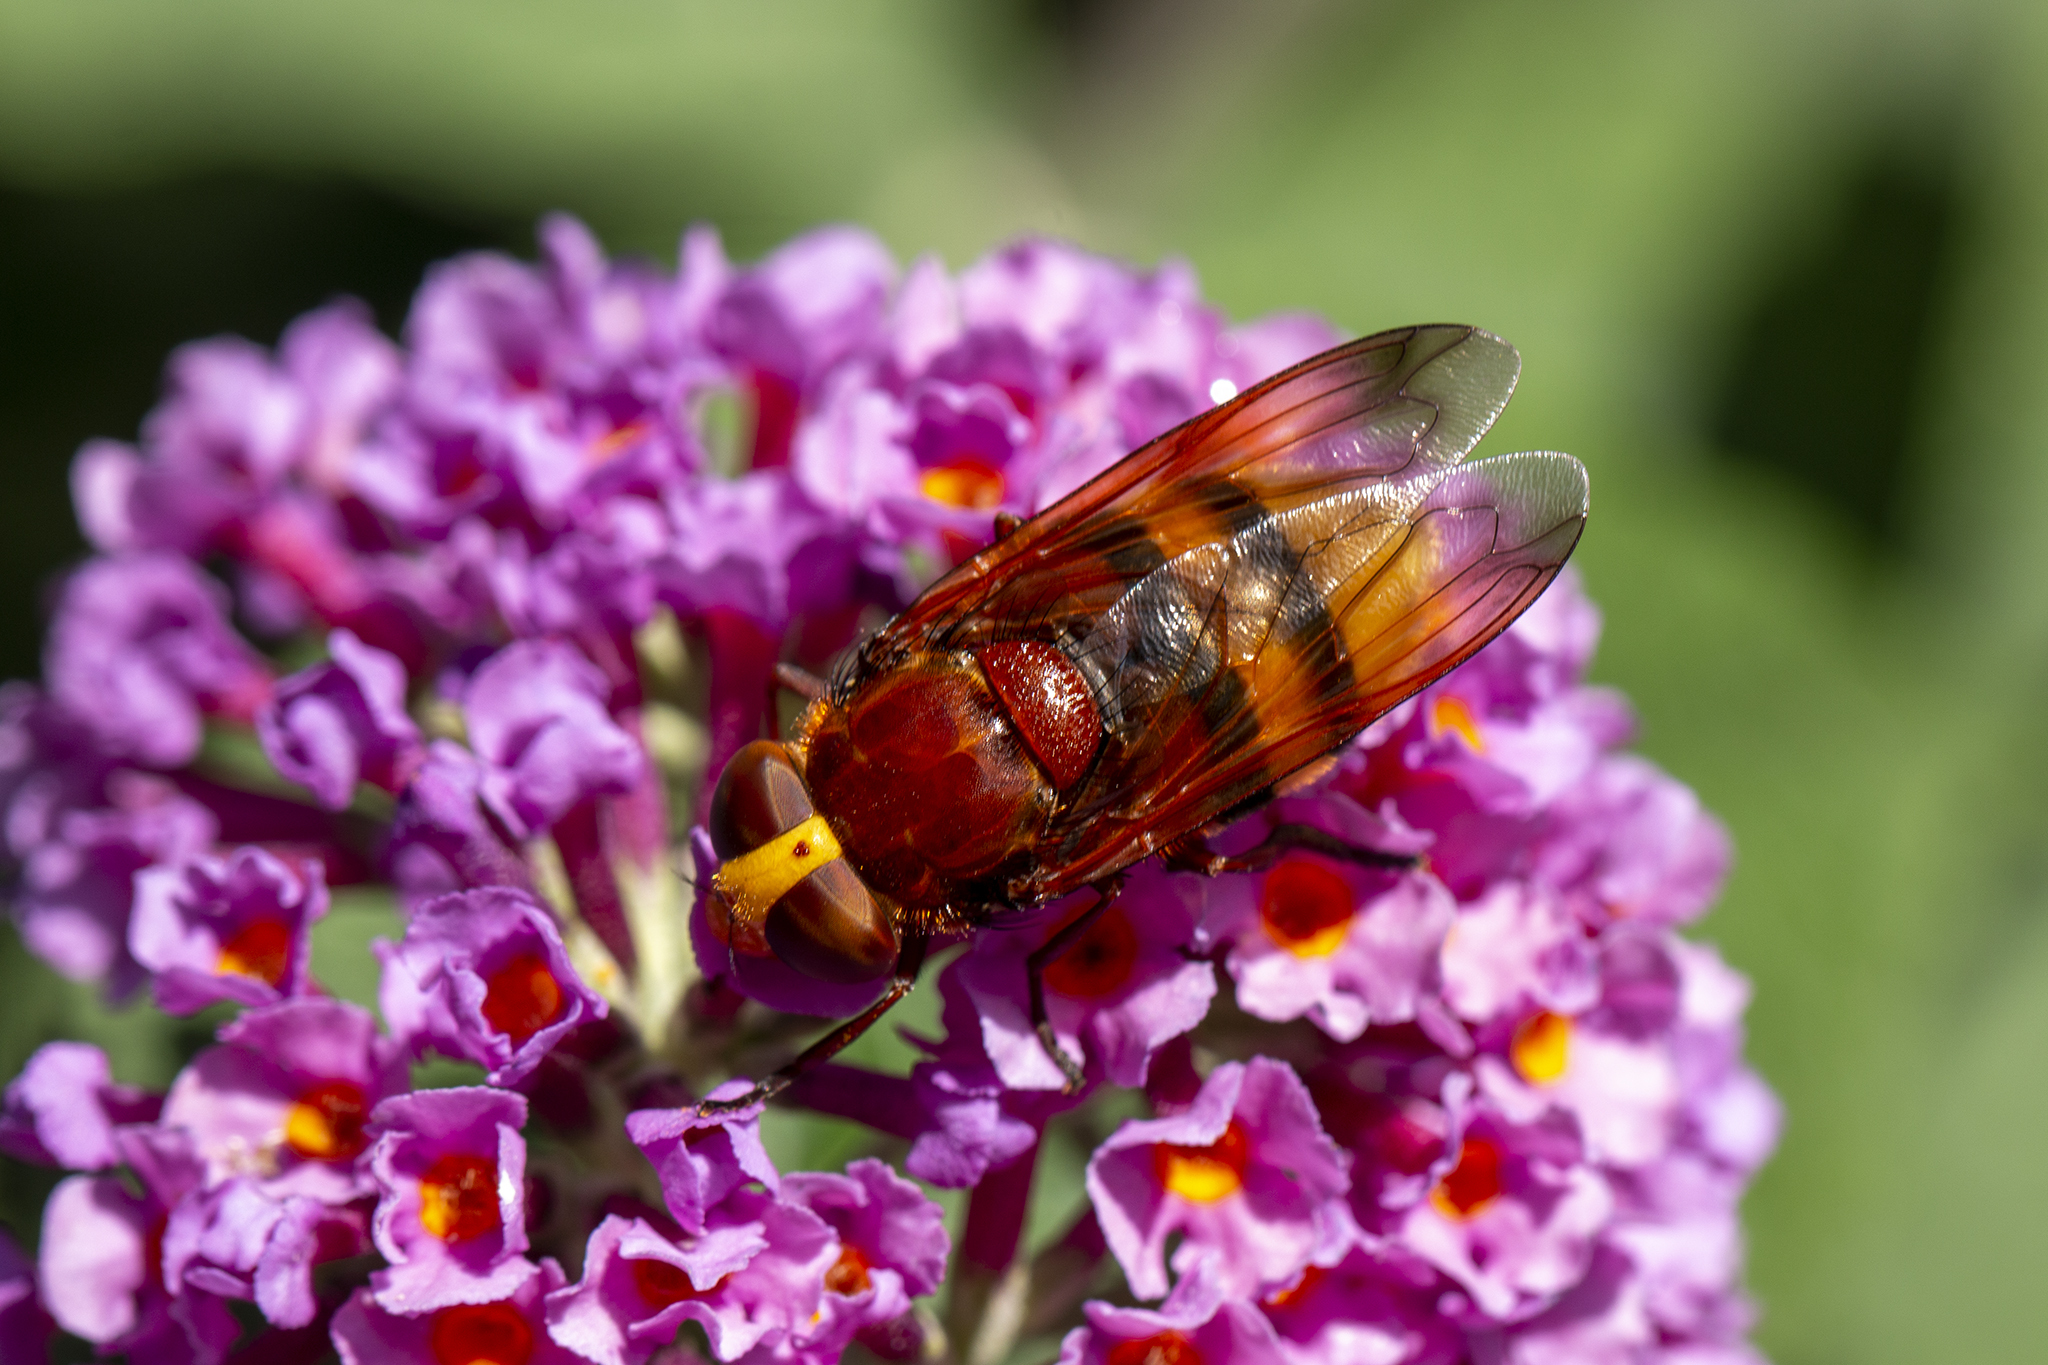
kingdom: Animalia
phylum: Arthropoda
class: Insecta
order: Diptera
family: Syrphidae
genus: Volucella
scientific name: Volucella zonaria
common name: Hornet hoverfly
